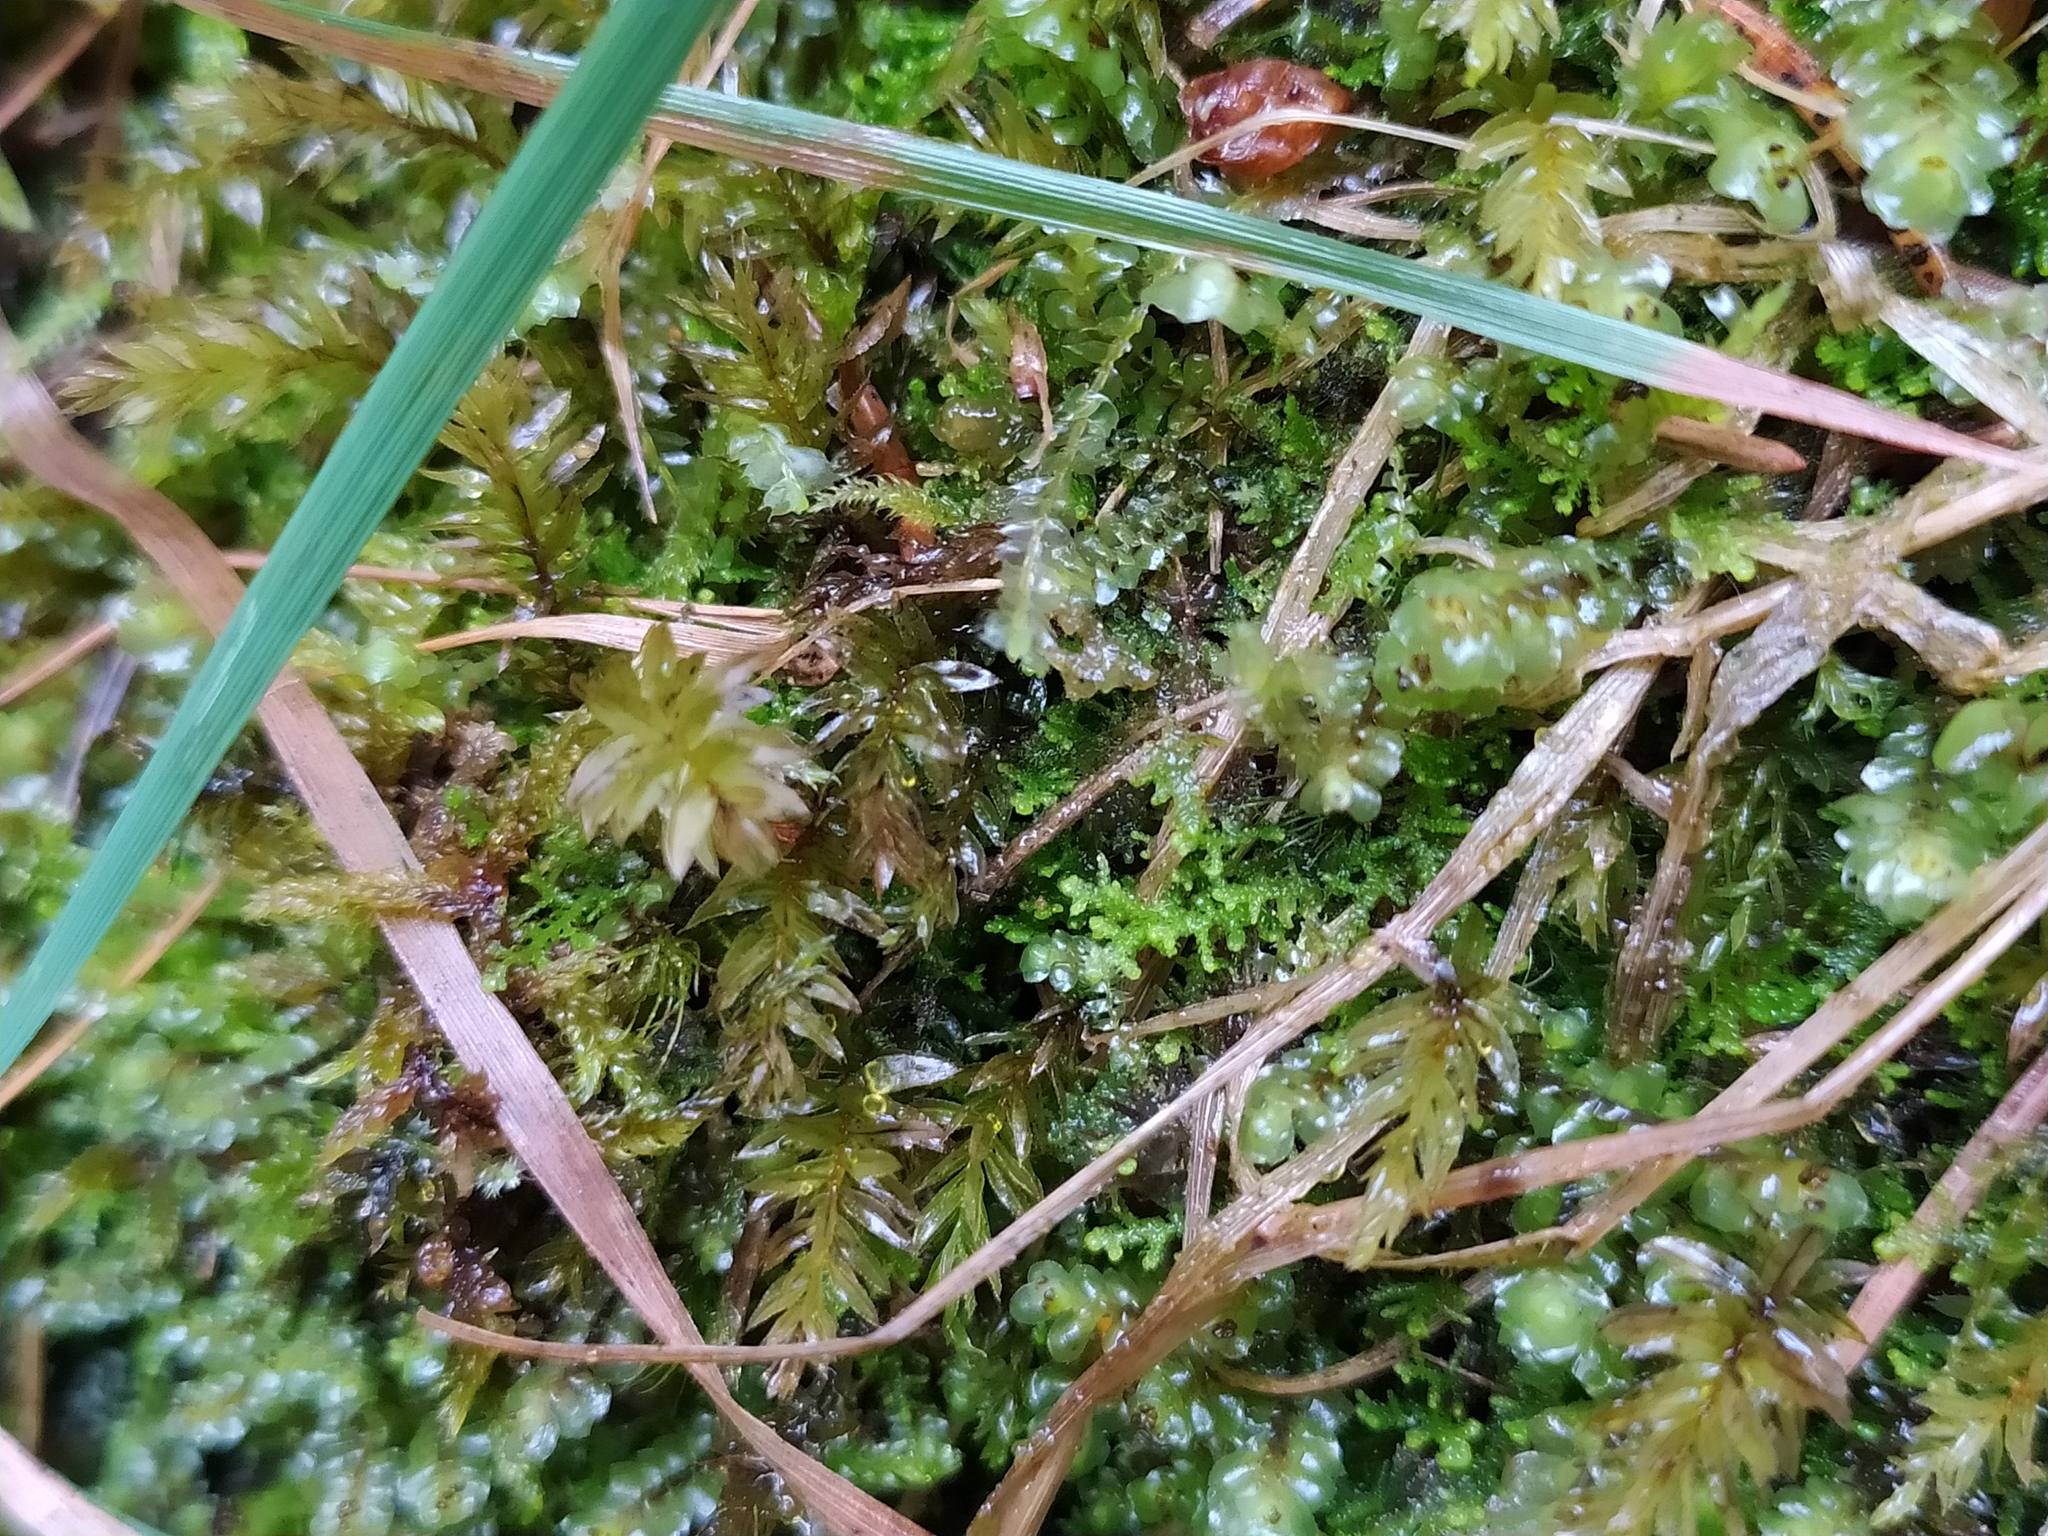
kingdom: Plantae
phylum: Marchantiophyta
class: Jungermanniopsida
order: Jungermanniales
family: Lepidoziaceae
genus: Lepidozia
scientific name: Lepidozia reptans
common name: Creeping fingerwort
